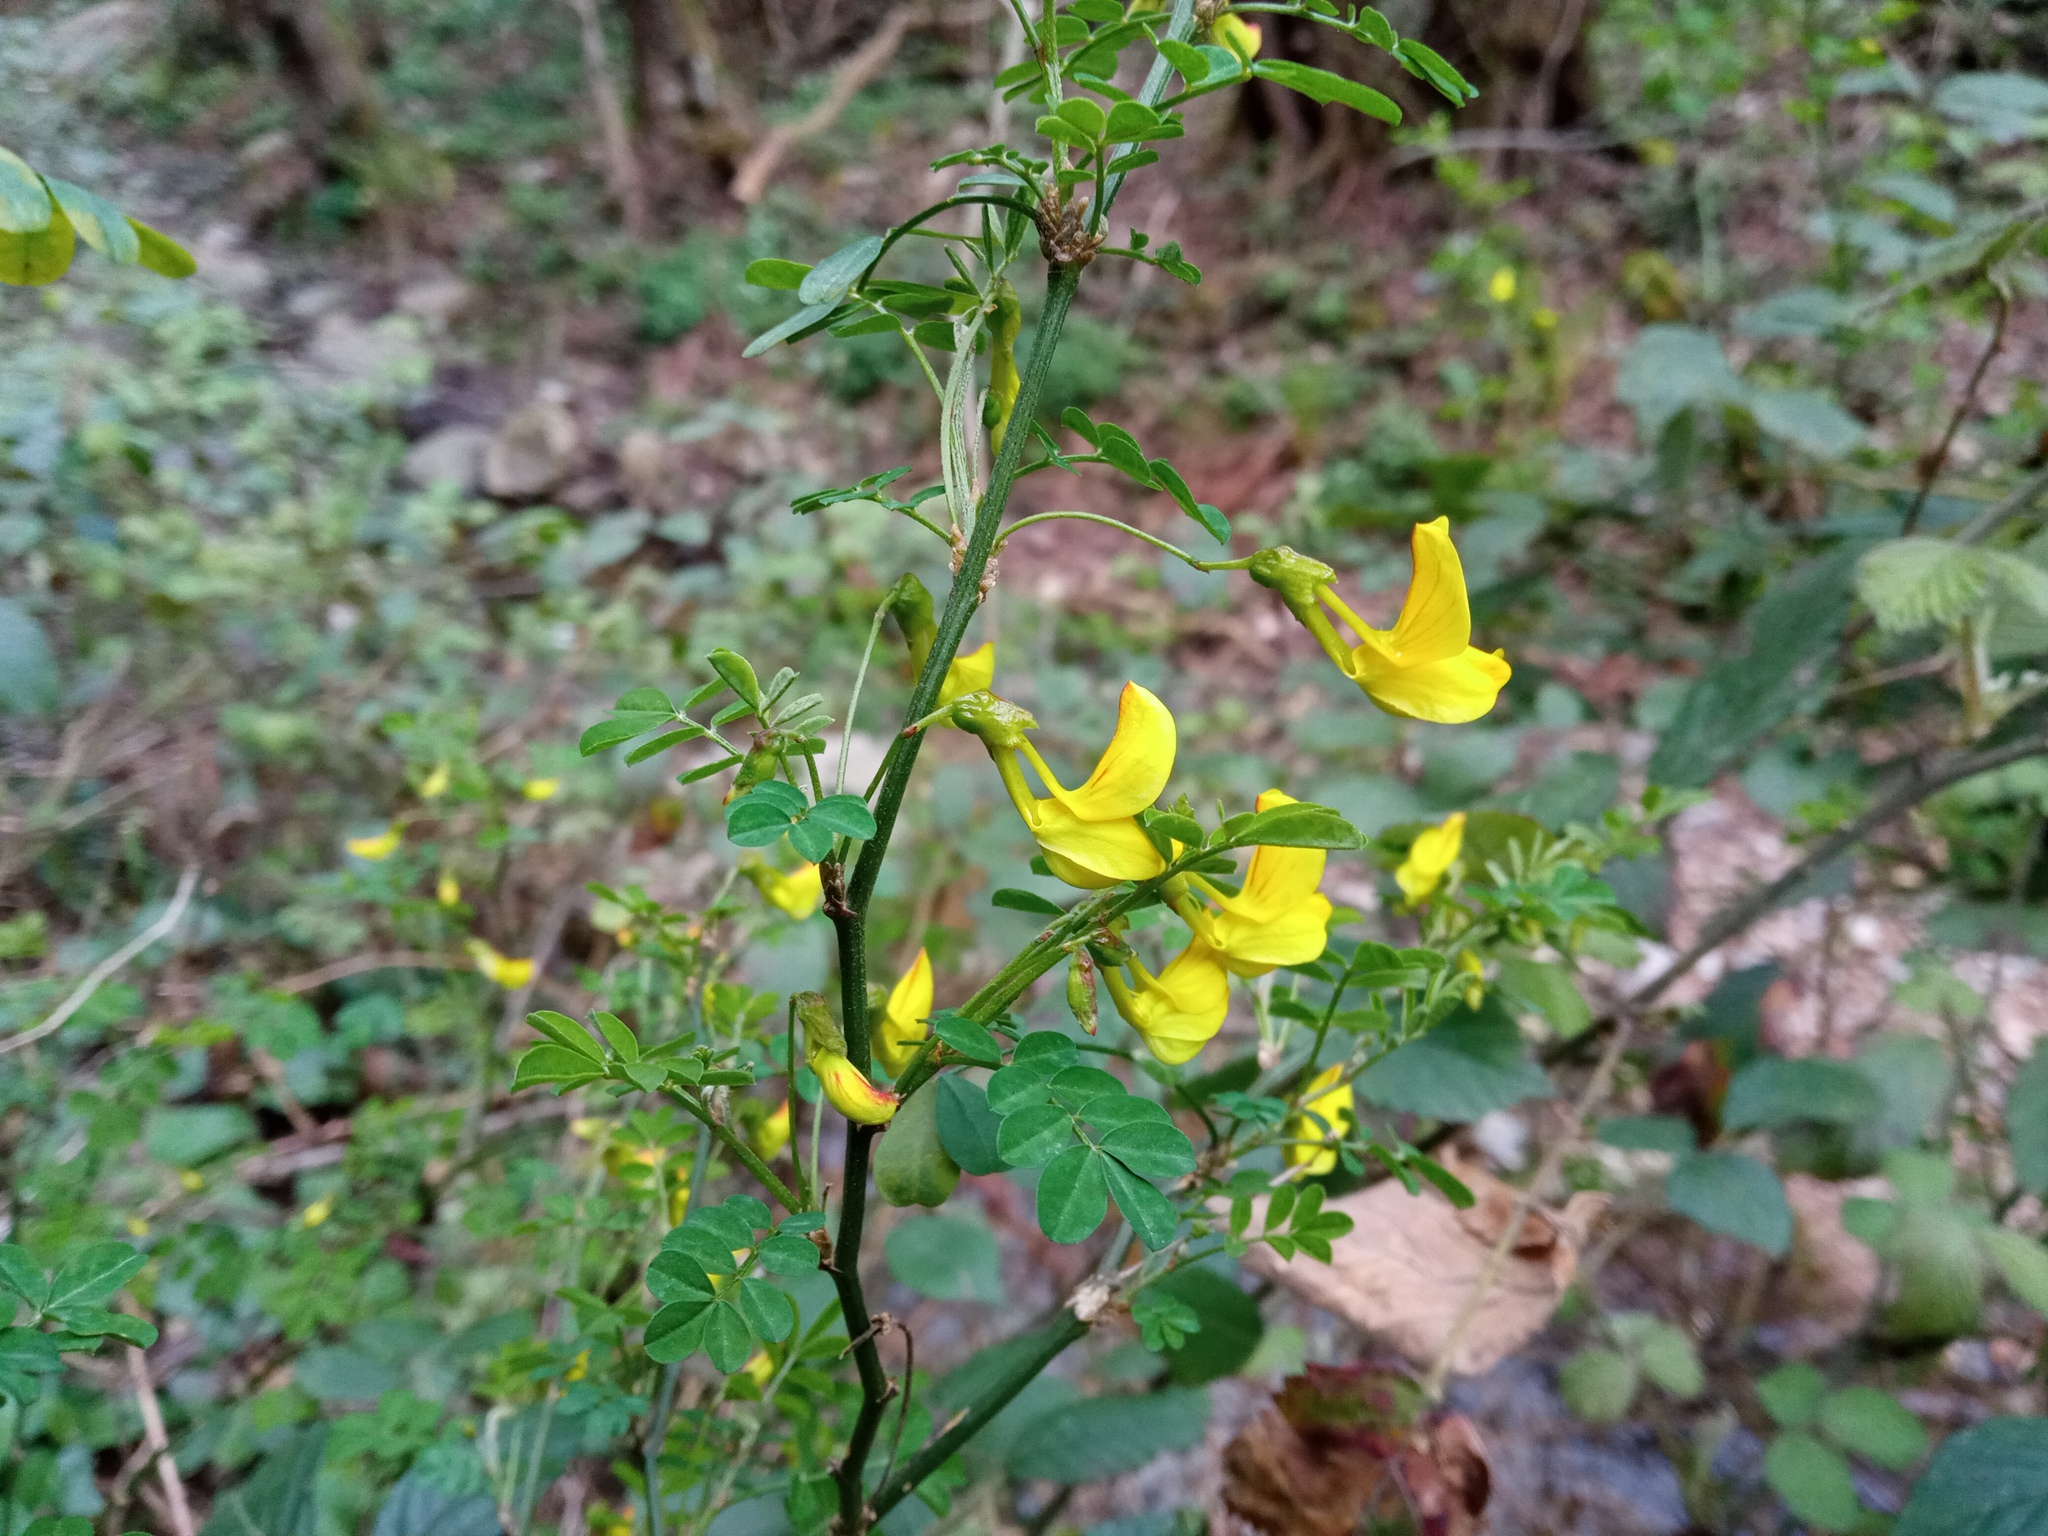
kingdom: Plantae
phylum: Tracheophyta
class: Magnoliopsida
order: Fabales
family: Fabaceae
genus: Hippocrepis
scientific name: Hippocrepis emerus
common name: Scorpion senna
